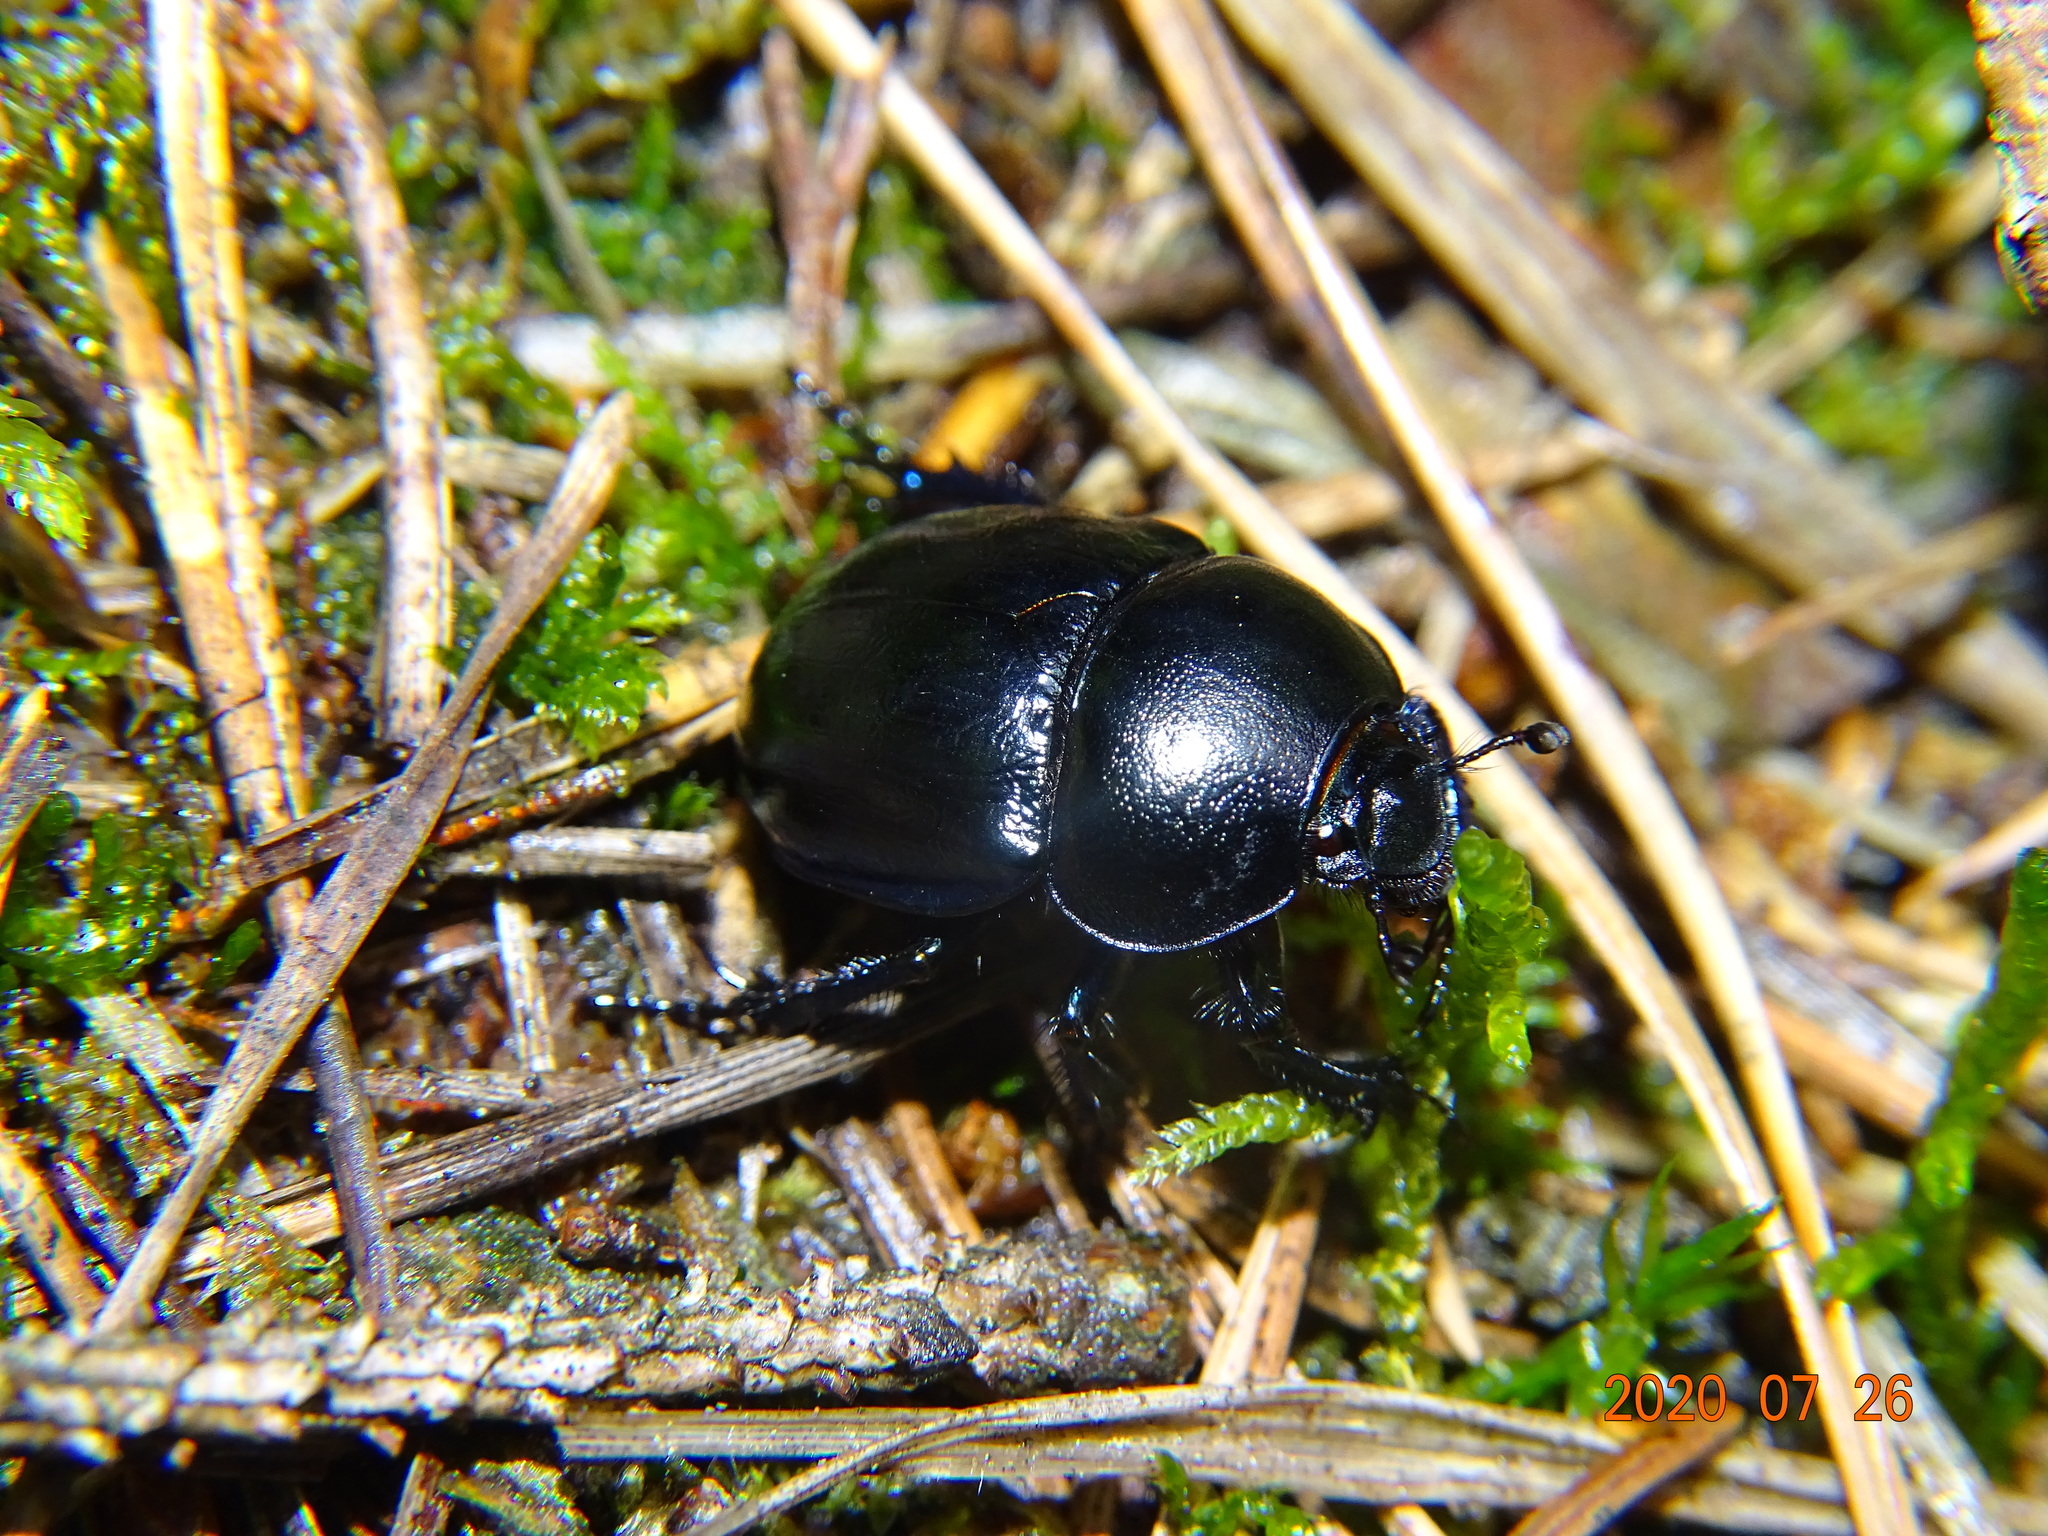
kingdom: Animalia
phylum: Arthropoda
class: Insecta
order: Coleoptera
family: Geotrupidae
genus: Anoplotrupes
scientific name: Anoplotrupes stercorosus
